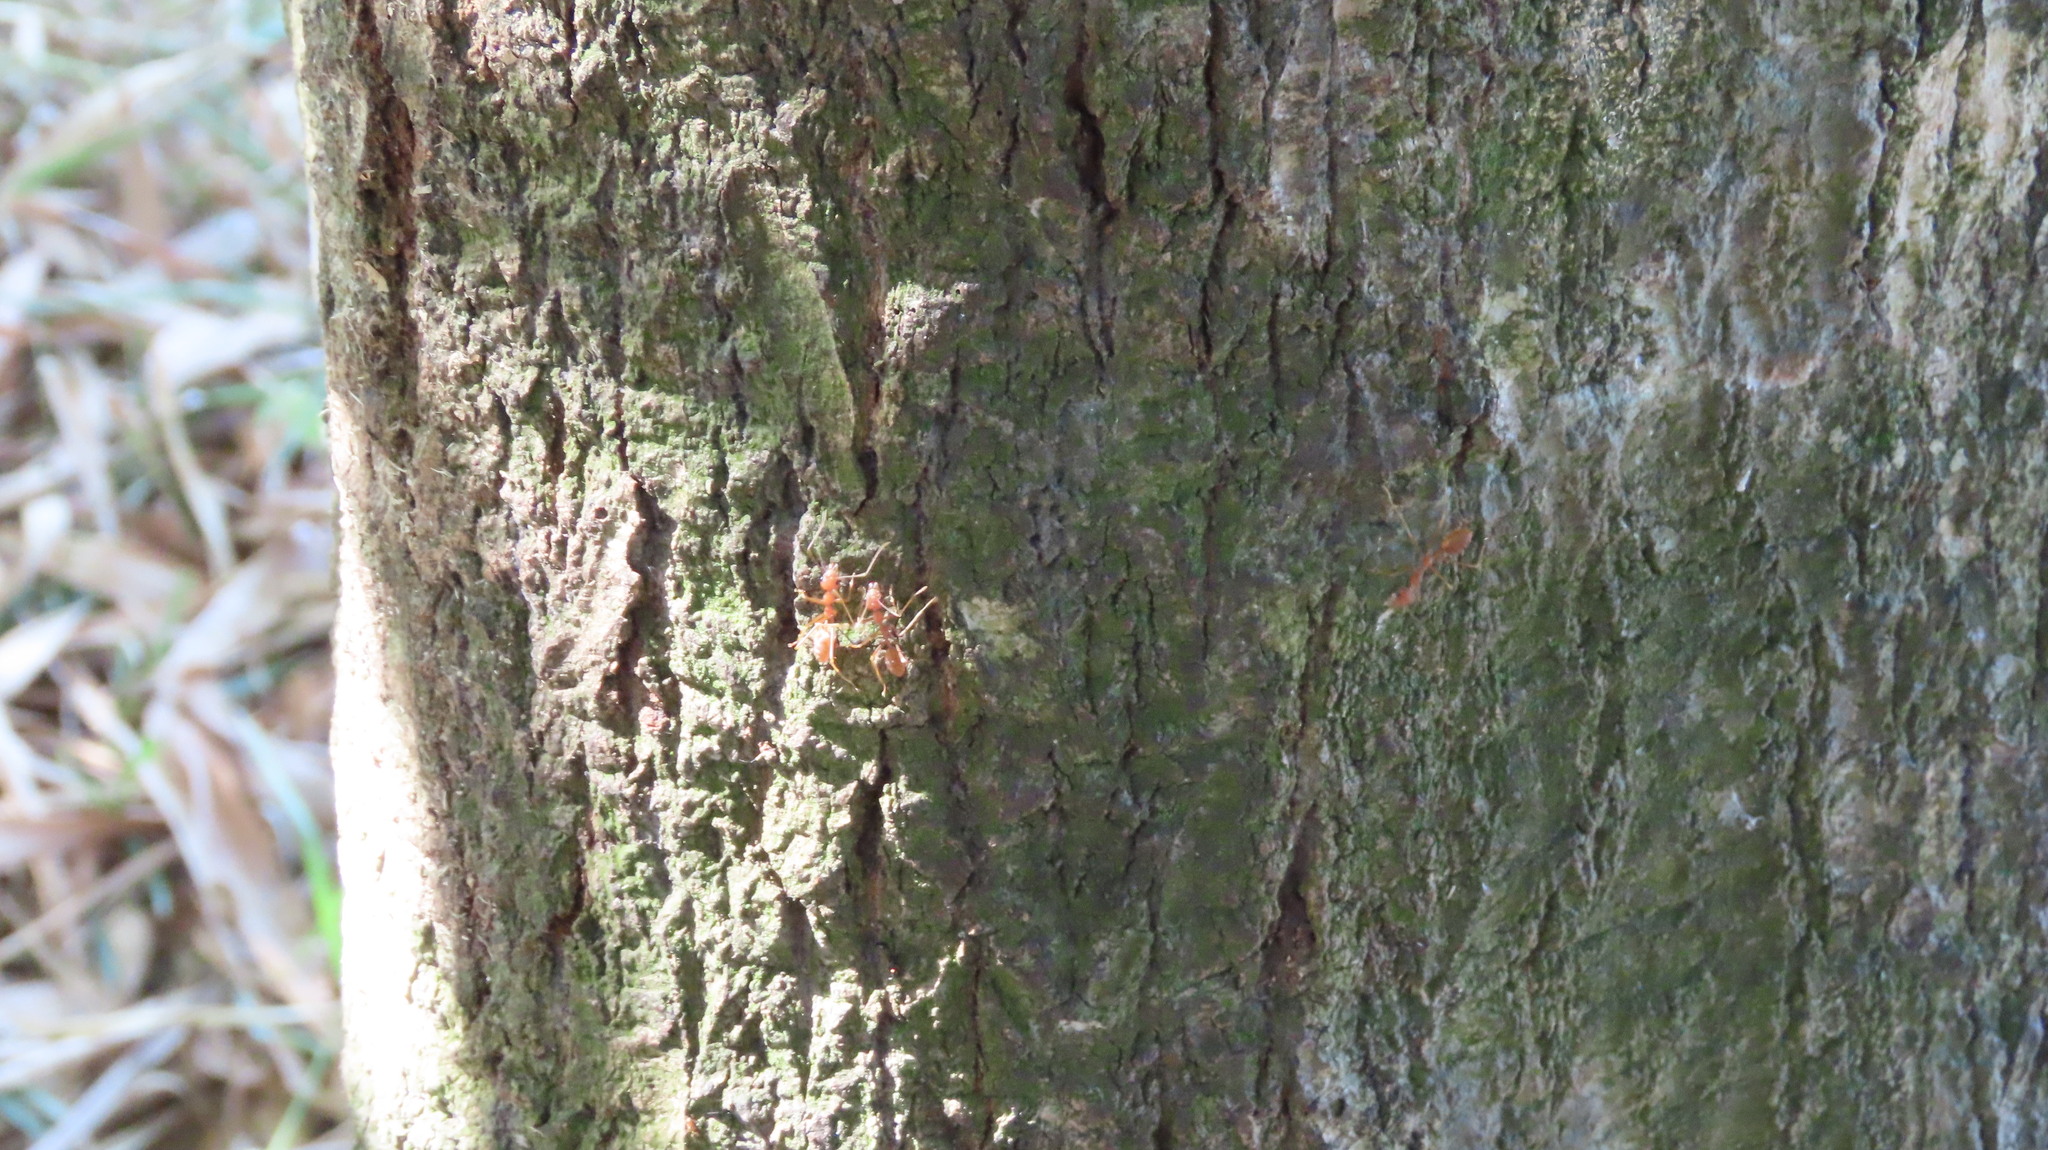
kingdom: Animalia
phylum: Arthropoda
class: Insecta
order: Hymenoptera
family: Formicidae
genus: Oecophylla
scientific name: Oecophylla smaragdina
